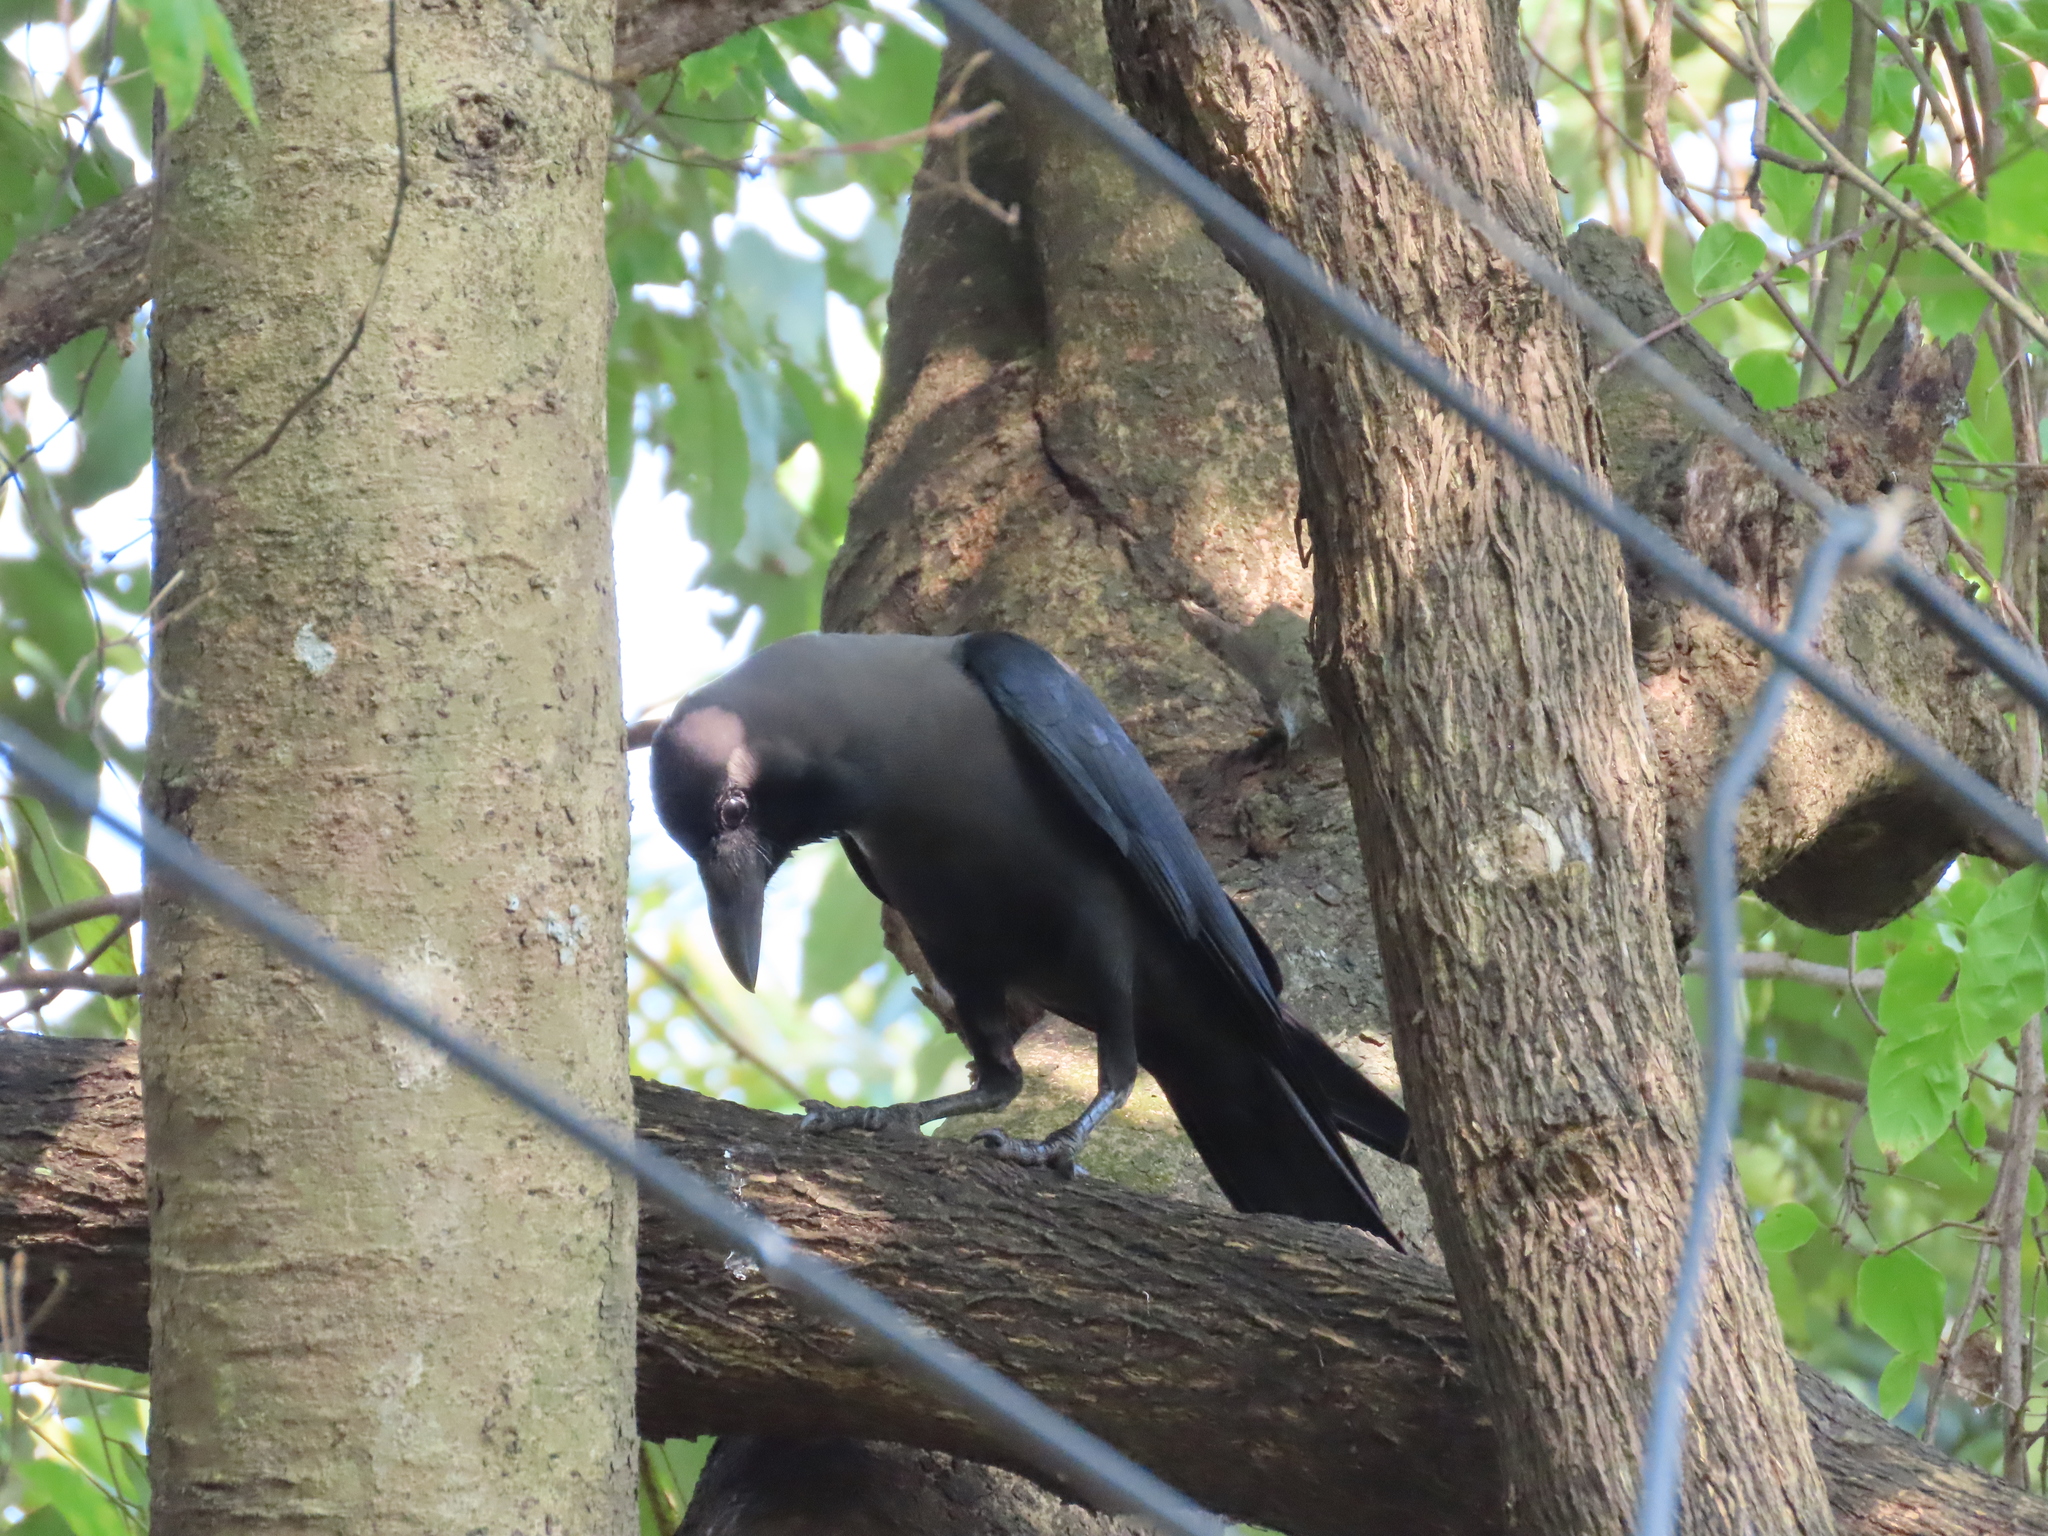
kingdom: Animalia
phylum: Chordata
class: Aves
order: Passeriformes
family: Corvidae
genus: Corvus
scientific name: Corvus splendens
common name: House crow
